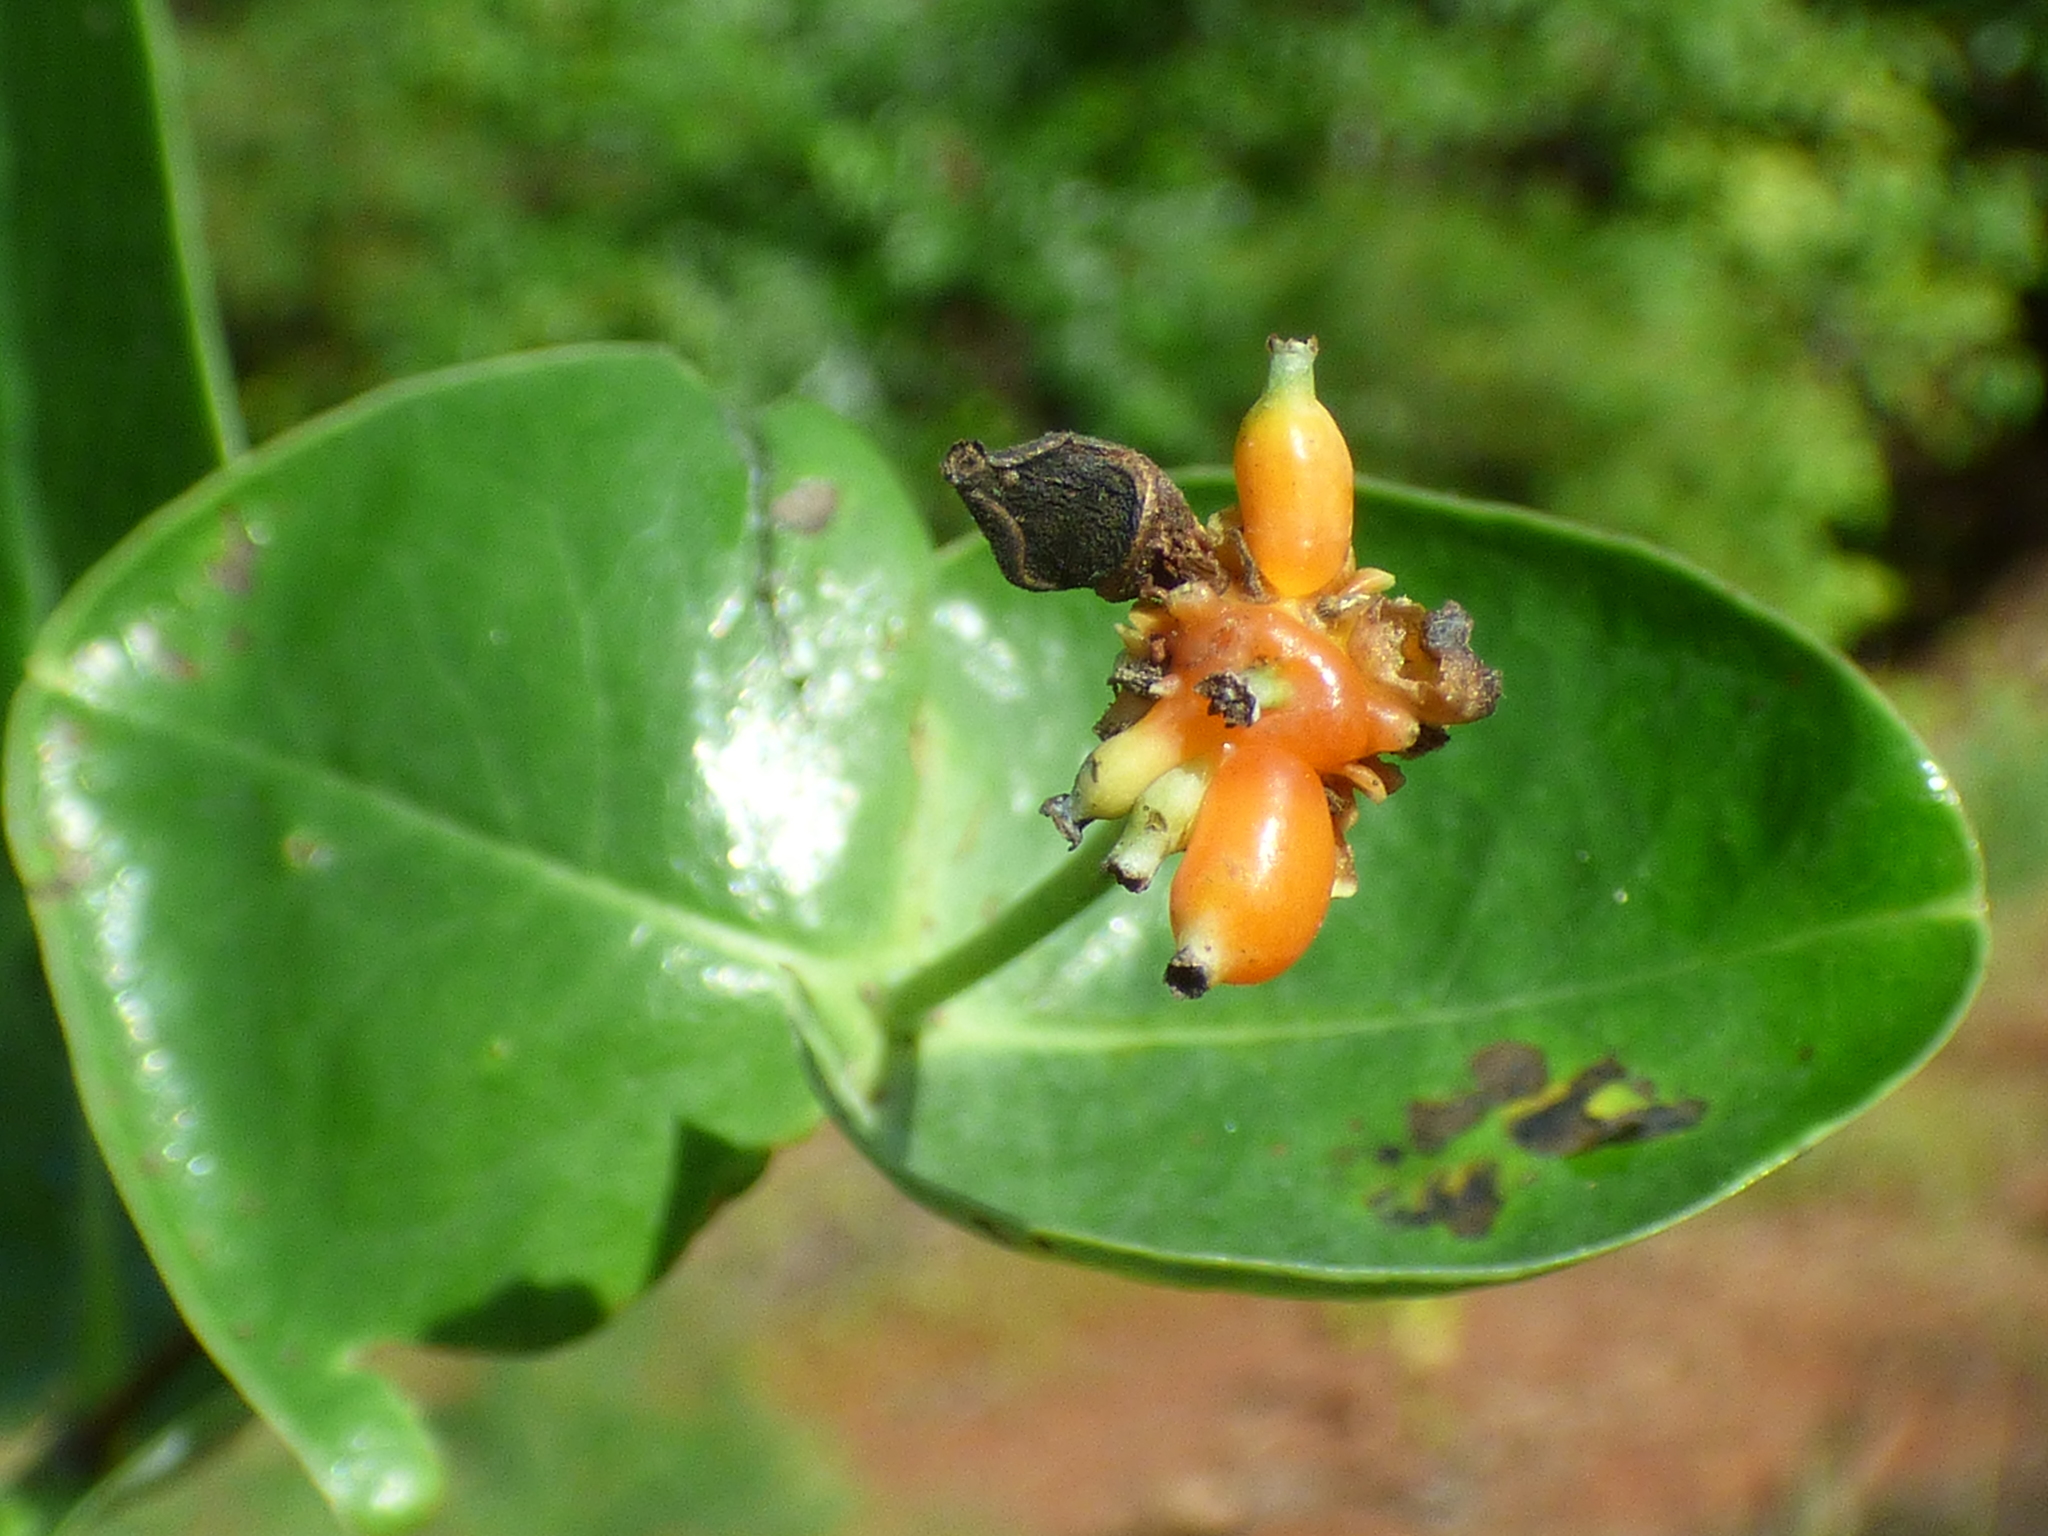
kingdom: Plantae
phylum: Tracheophyta
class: Magnoliopsida
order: Dipsacales
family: Caprifoliaceae
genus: Lonicera
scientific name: Lonicera sempervirens
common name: Coral honeysuckle
